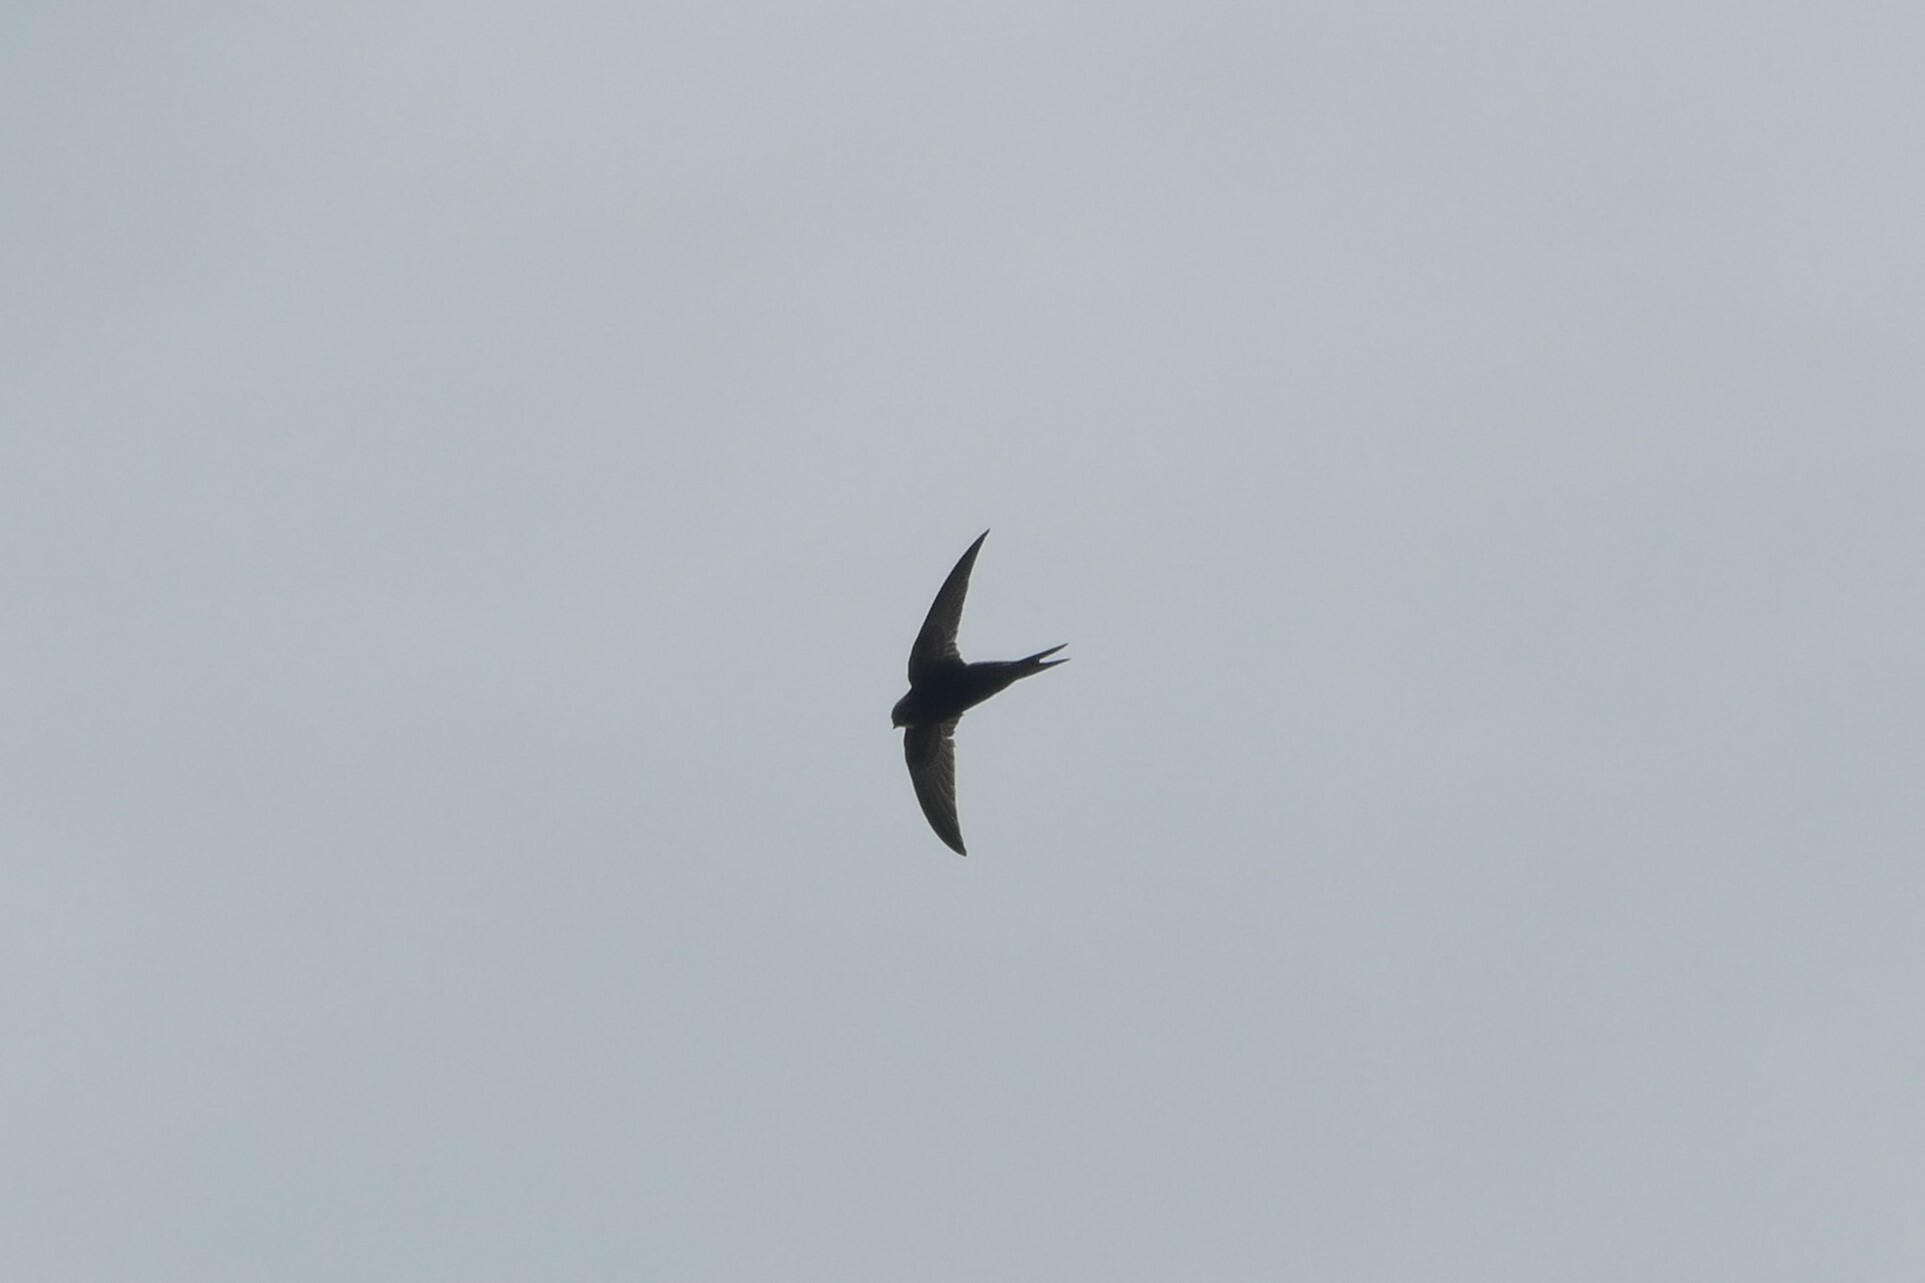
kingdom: Animalia
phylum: Chordata
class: Aves
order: Apodiformes
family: Apodidae
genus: Apus
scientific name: Apus apus
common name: Common swift
